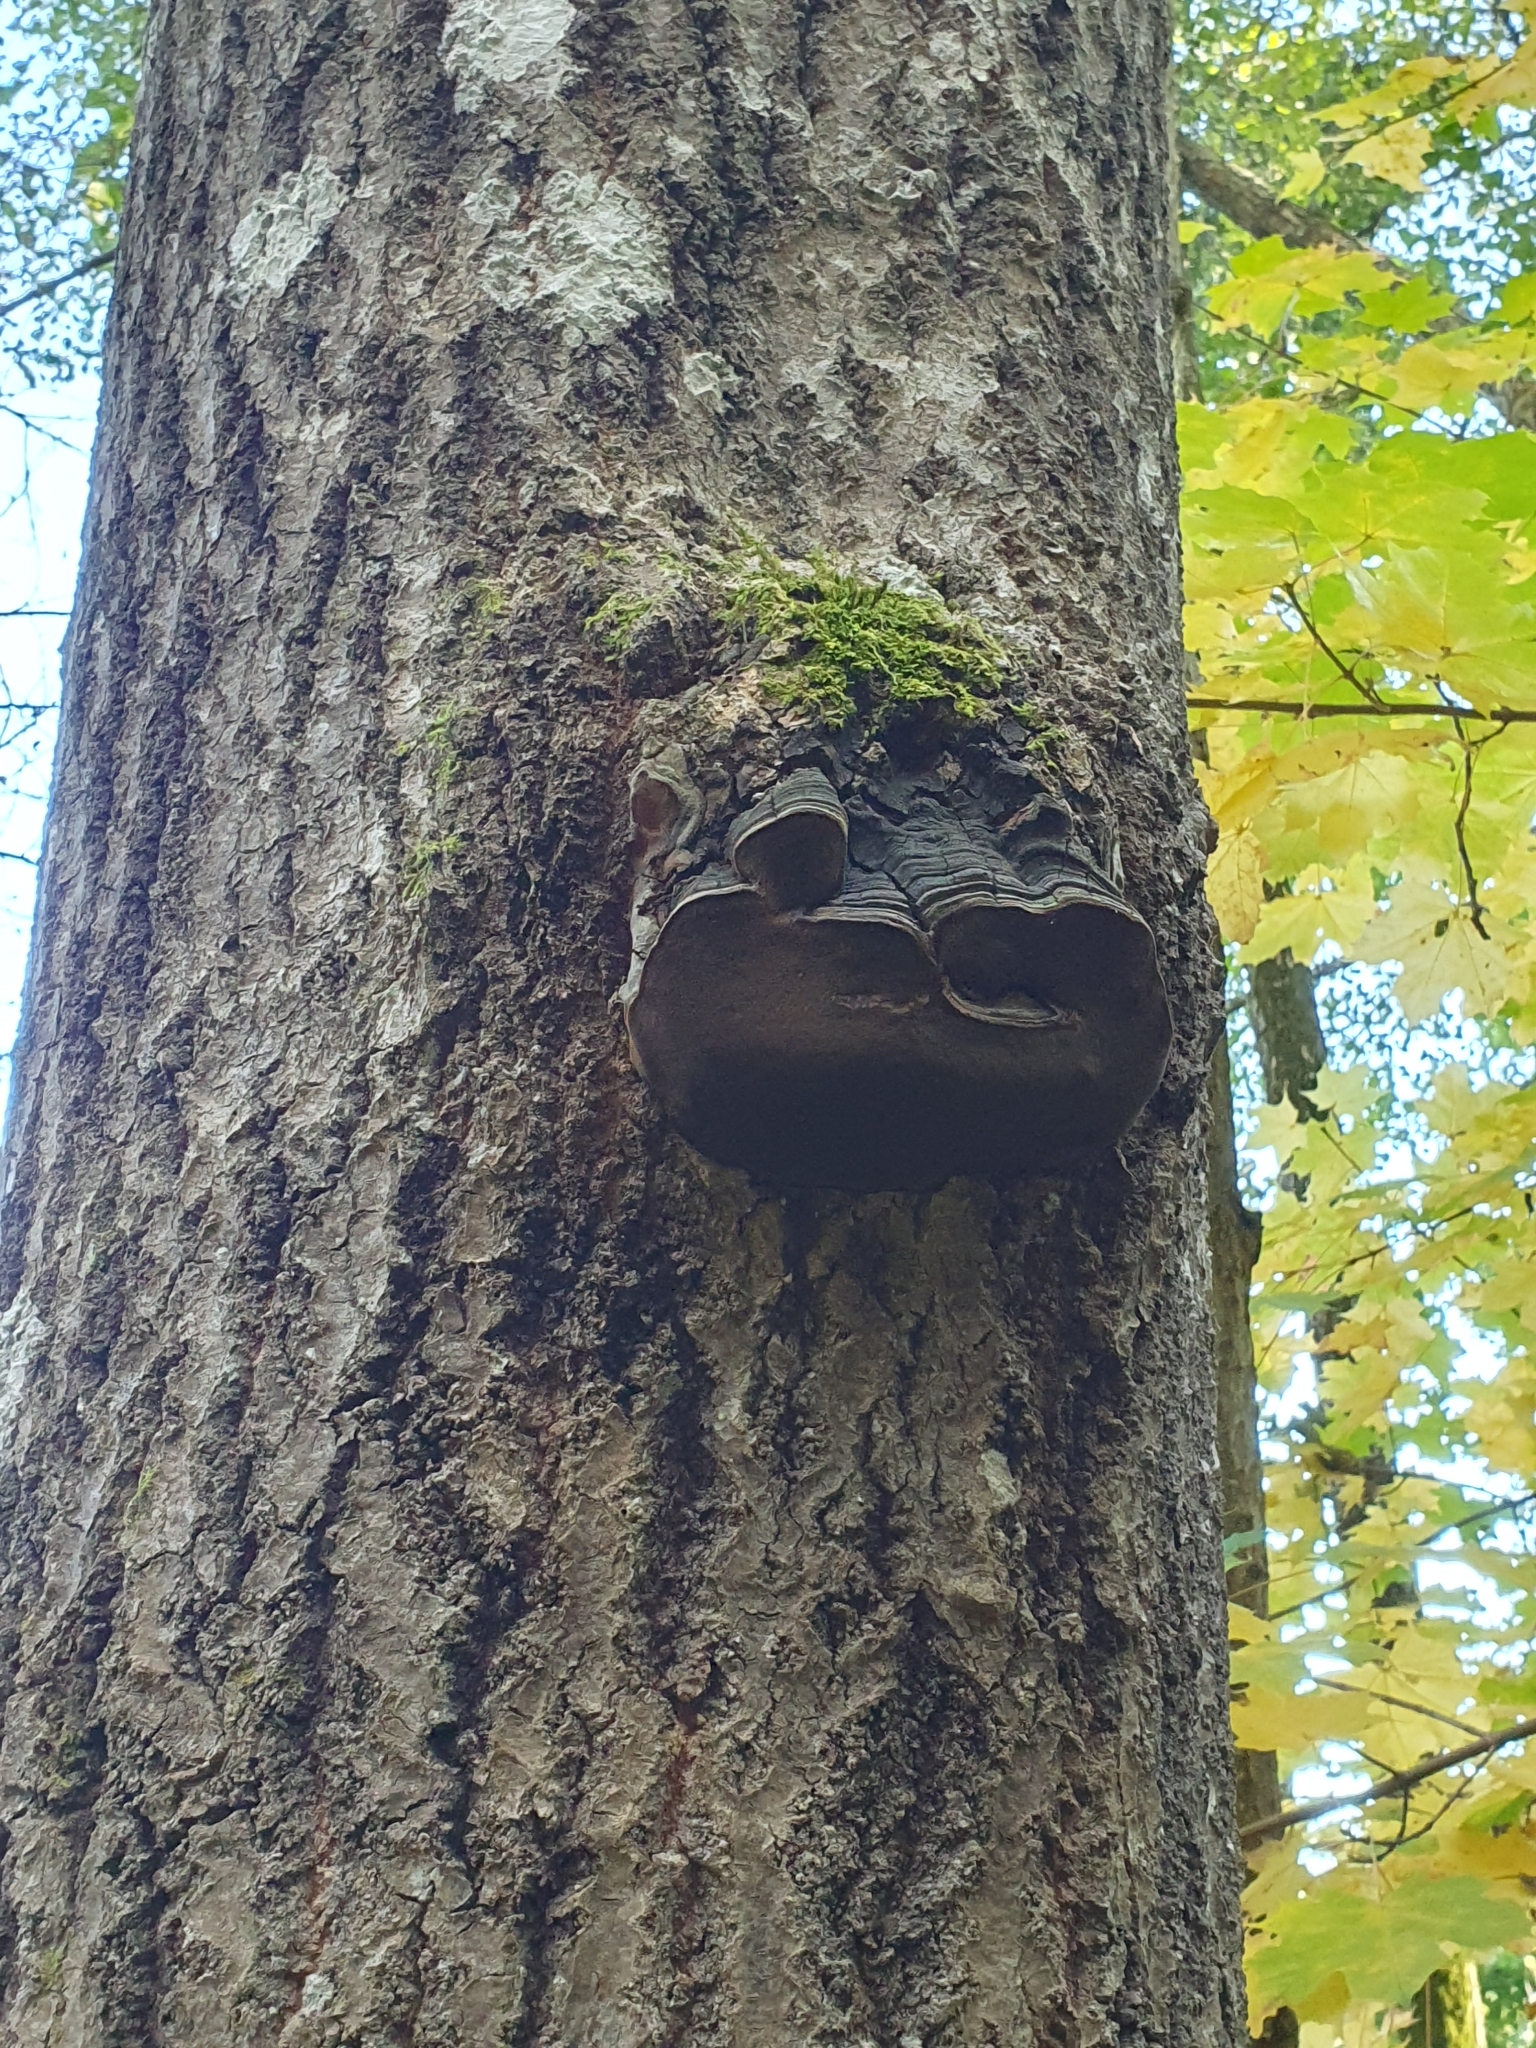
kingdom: Fungi
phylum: Basidiomycota
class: Agaricomycetes
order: Hymenochaetales
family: Hymenochaetaceae
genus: Phellinus
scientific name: Phellinus tremulae
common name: Aspen bracket
